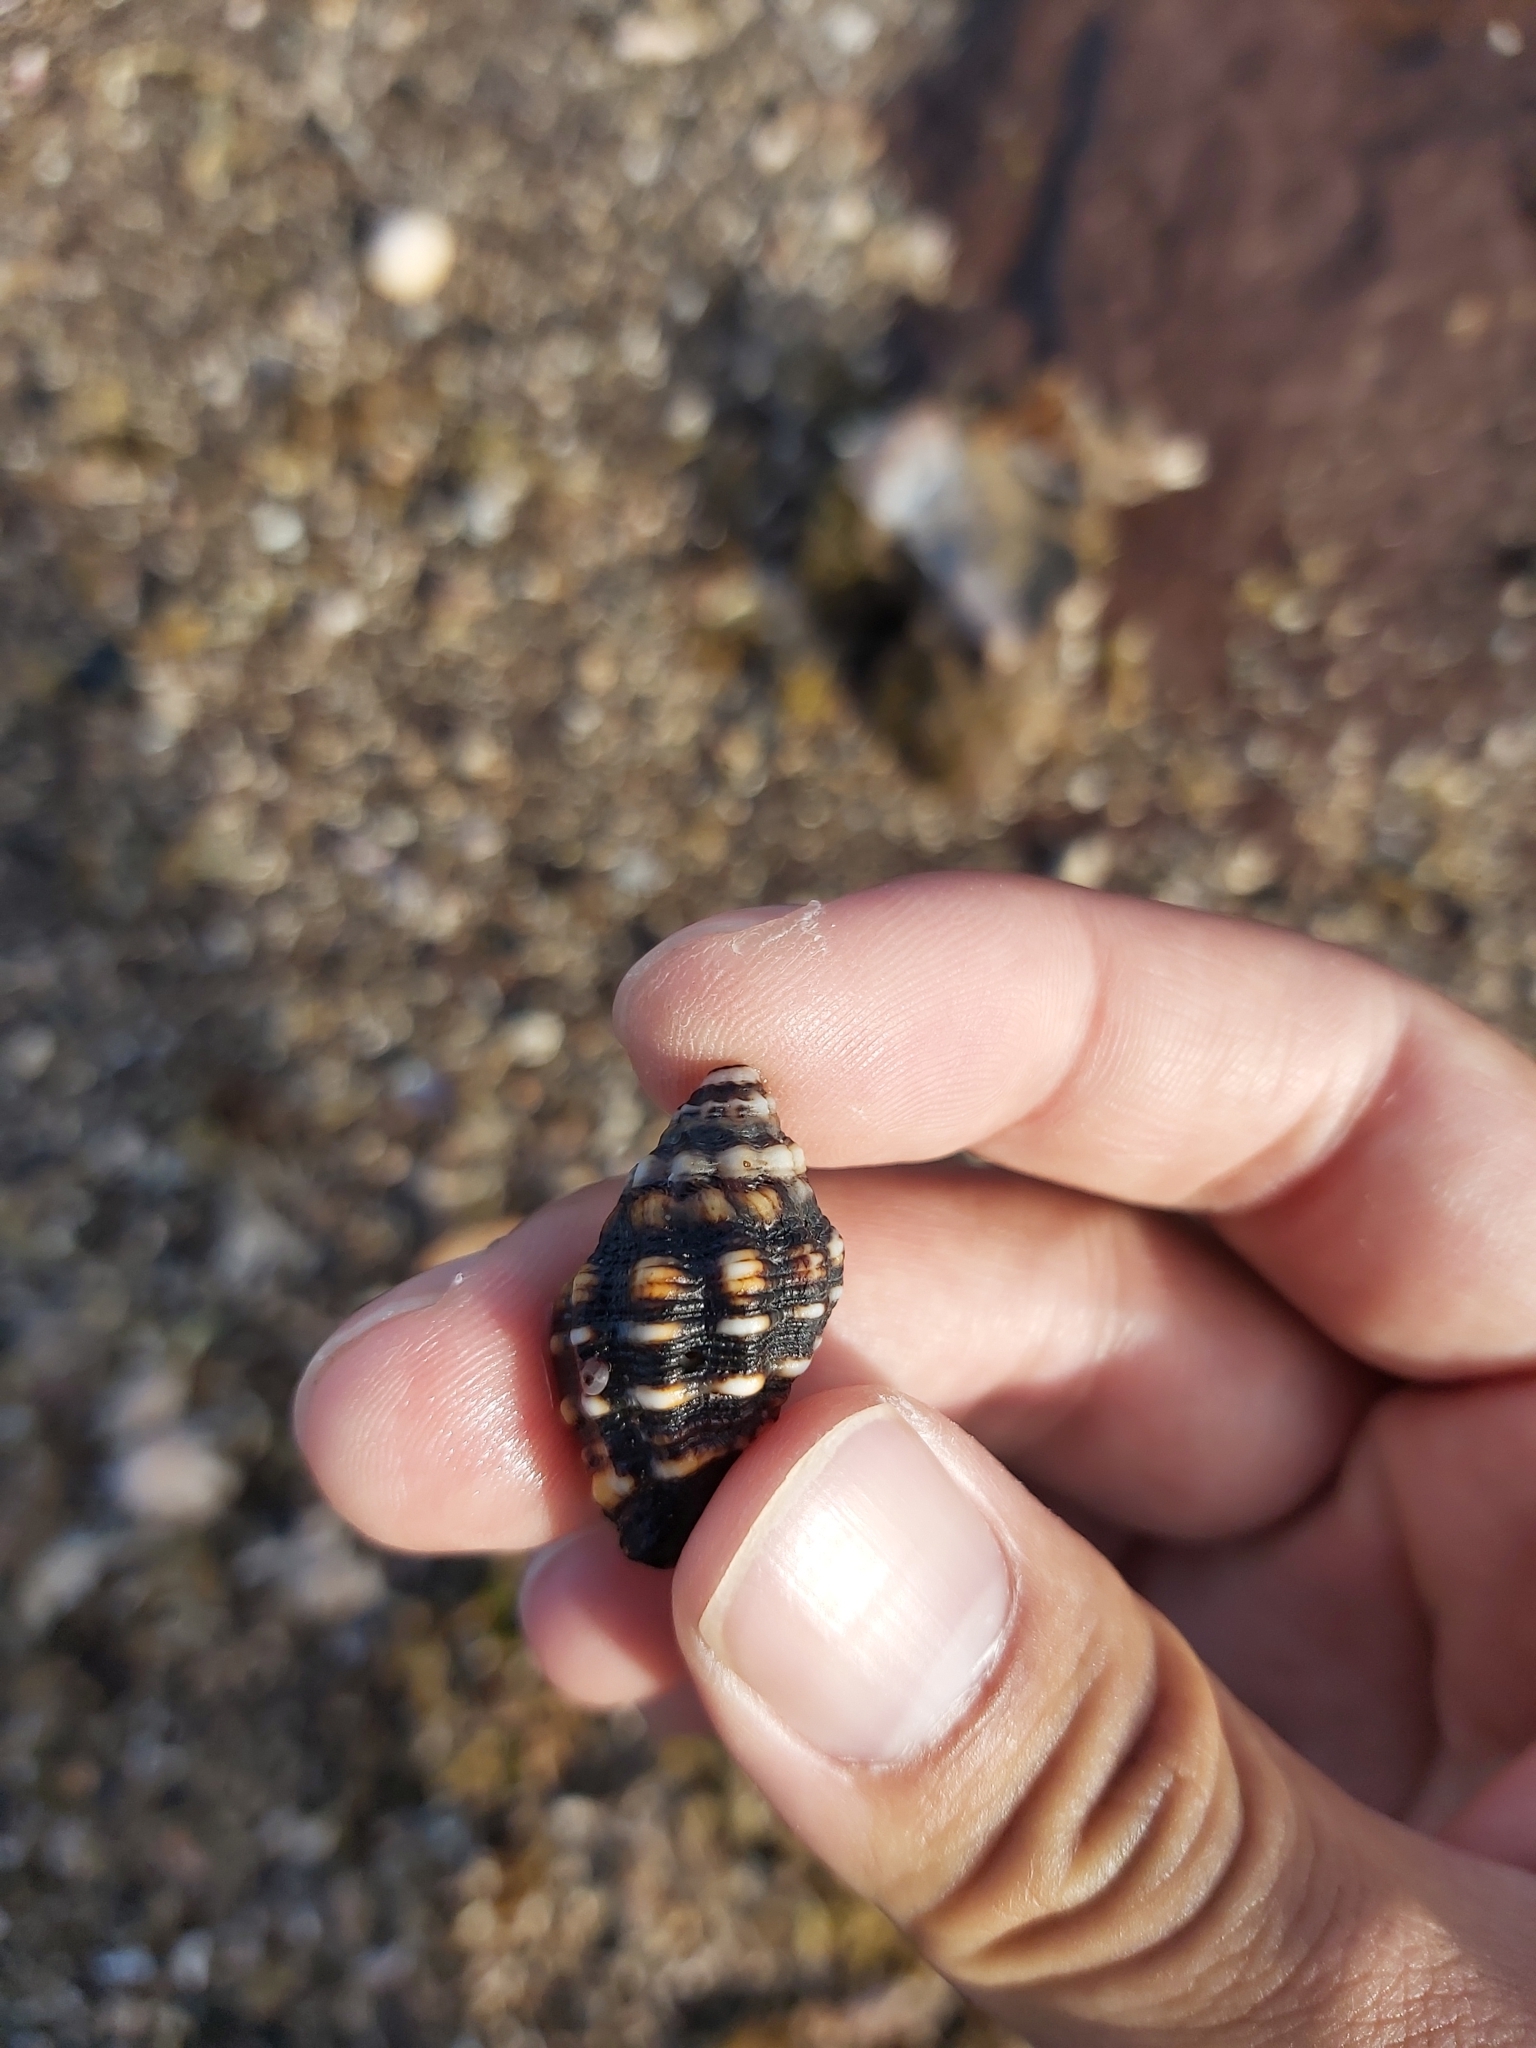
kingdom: Animalia
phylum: Mollusca
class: Gastropoda
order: Neogastropoda
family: Muricidae
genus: Cronia
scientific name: Cronia aurantiaca
